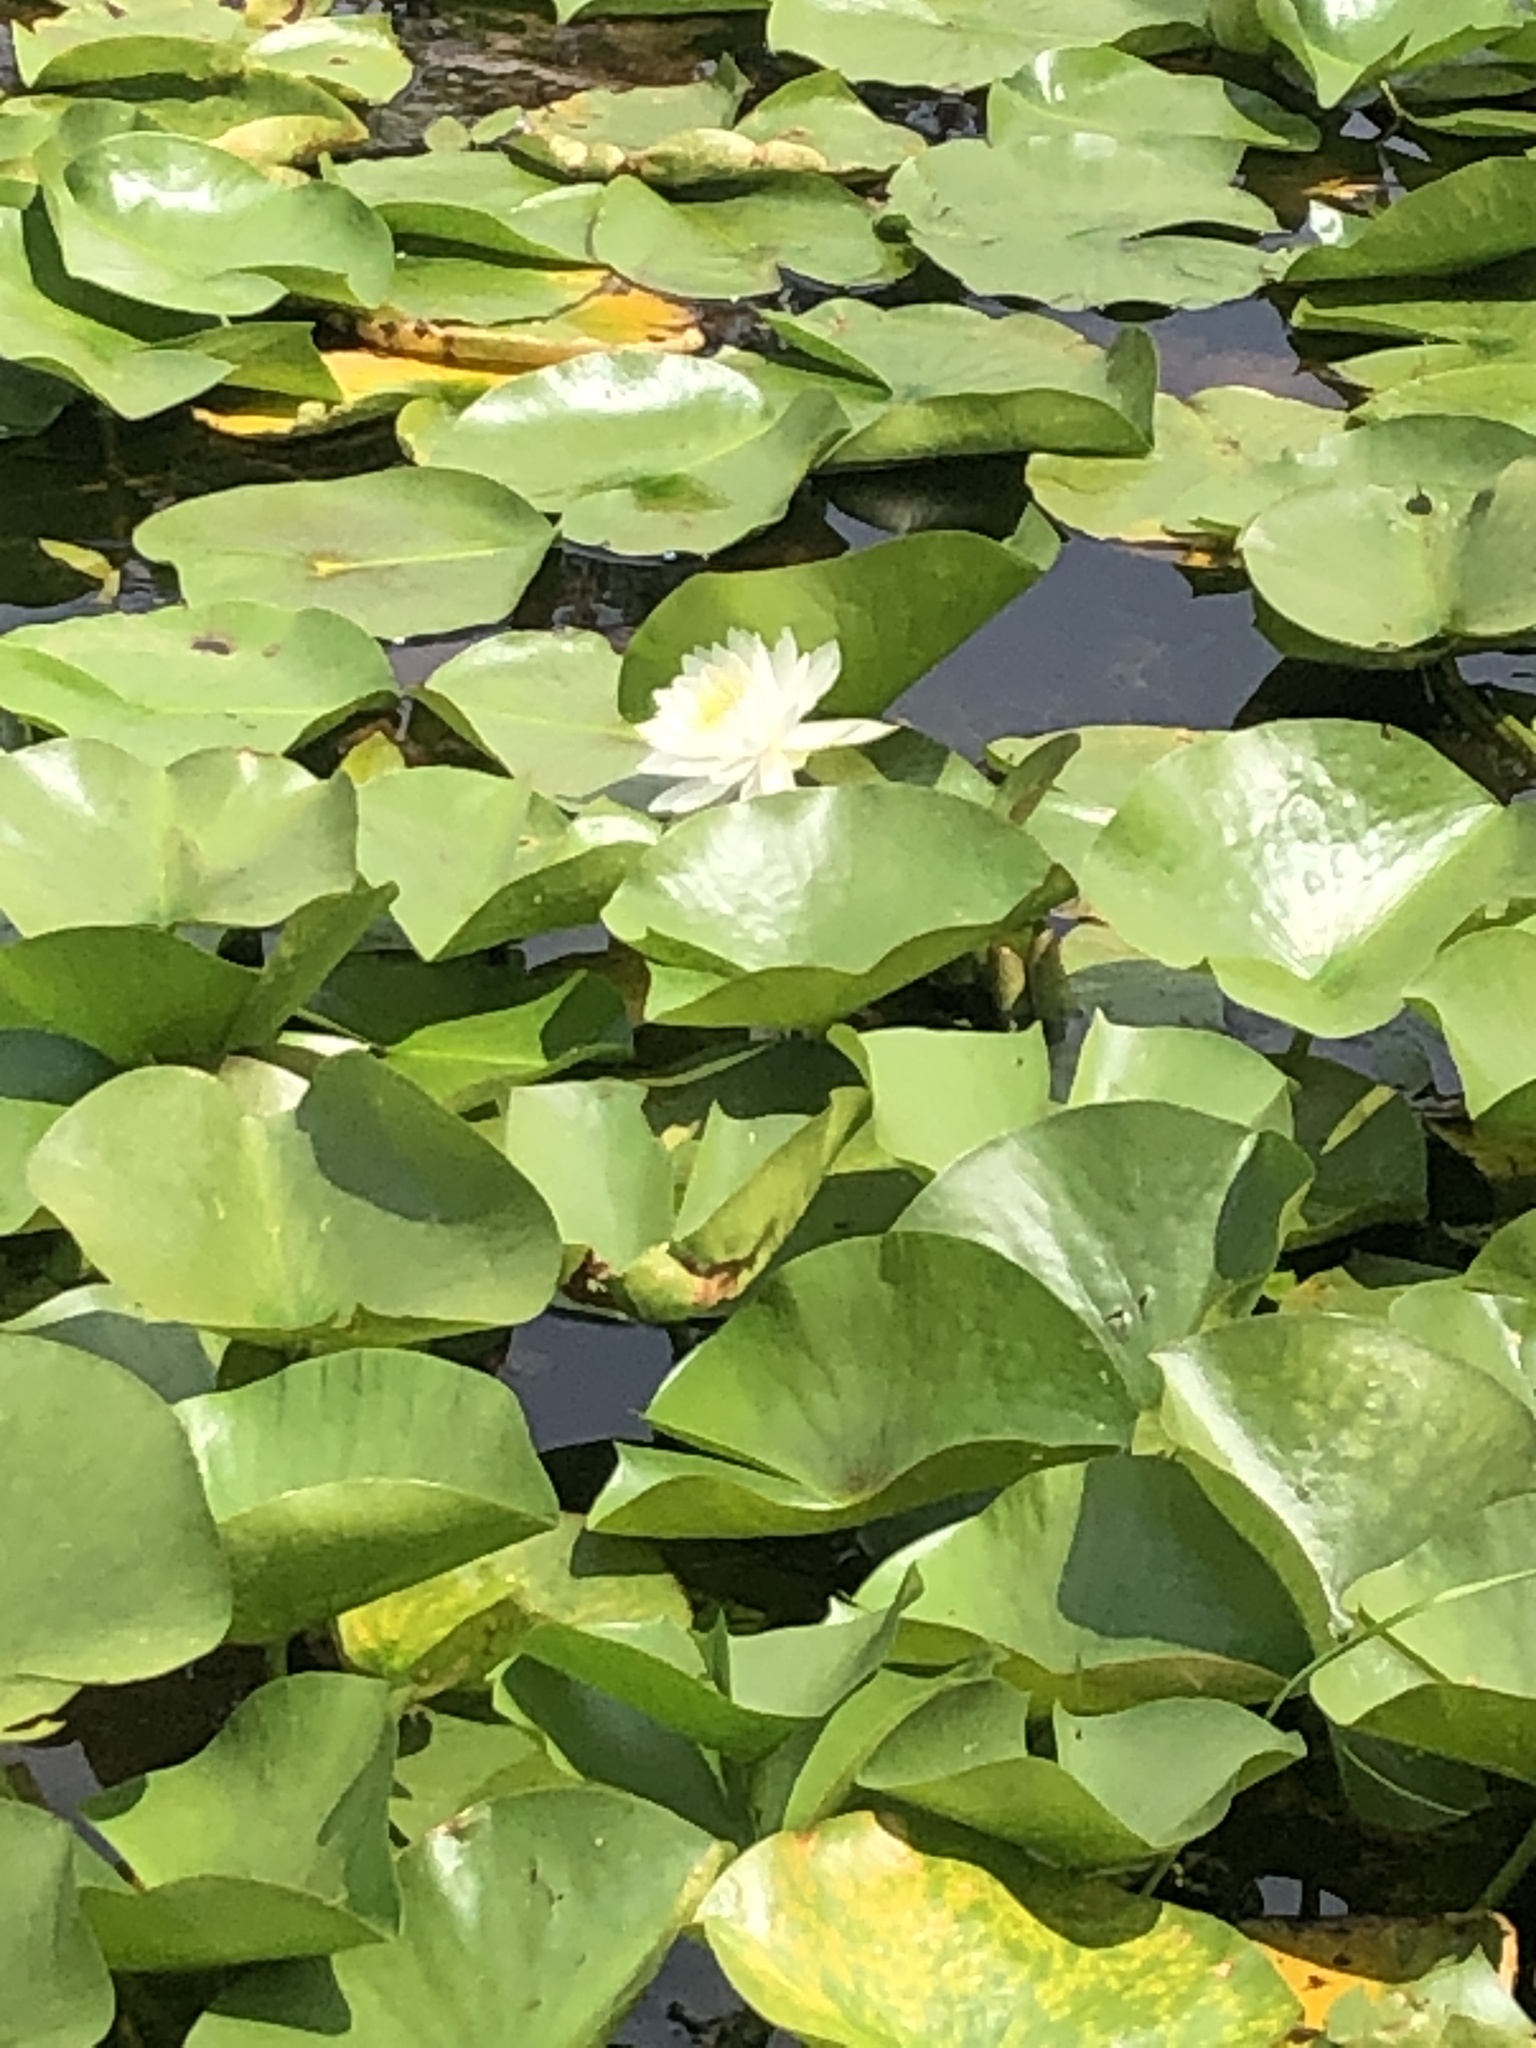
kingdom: Plantae
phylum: Tracheophyta
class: Magnoliopsida
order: Nymphaeales
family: Nymphaeaceae
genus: Nymphaea
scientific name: Nymphaea odorata
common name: Fragrant water-lily
